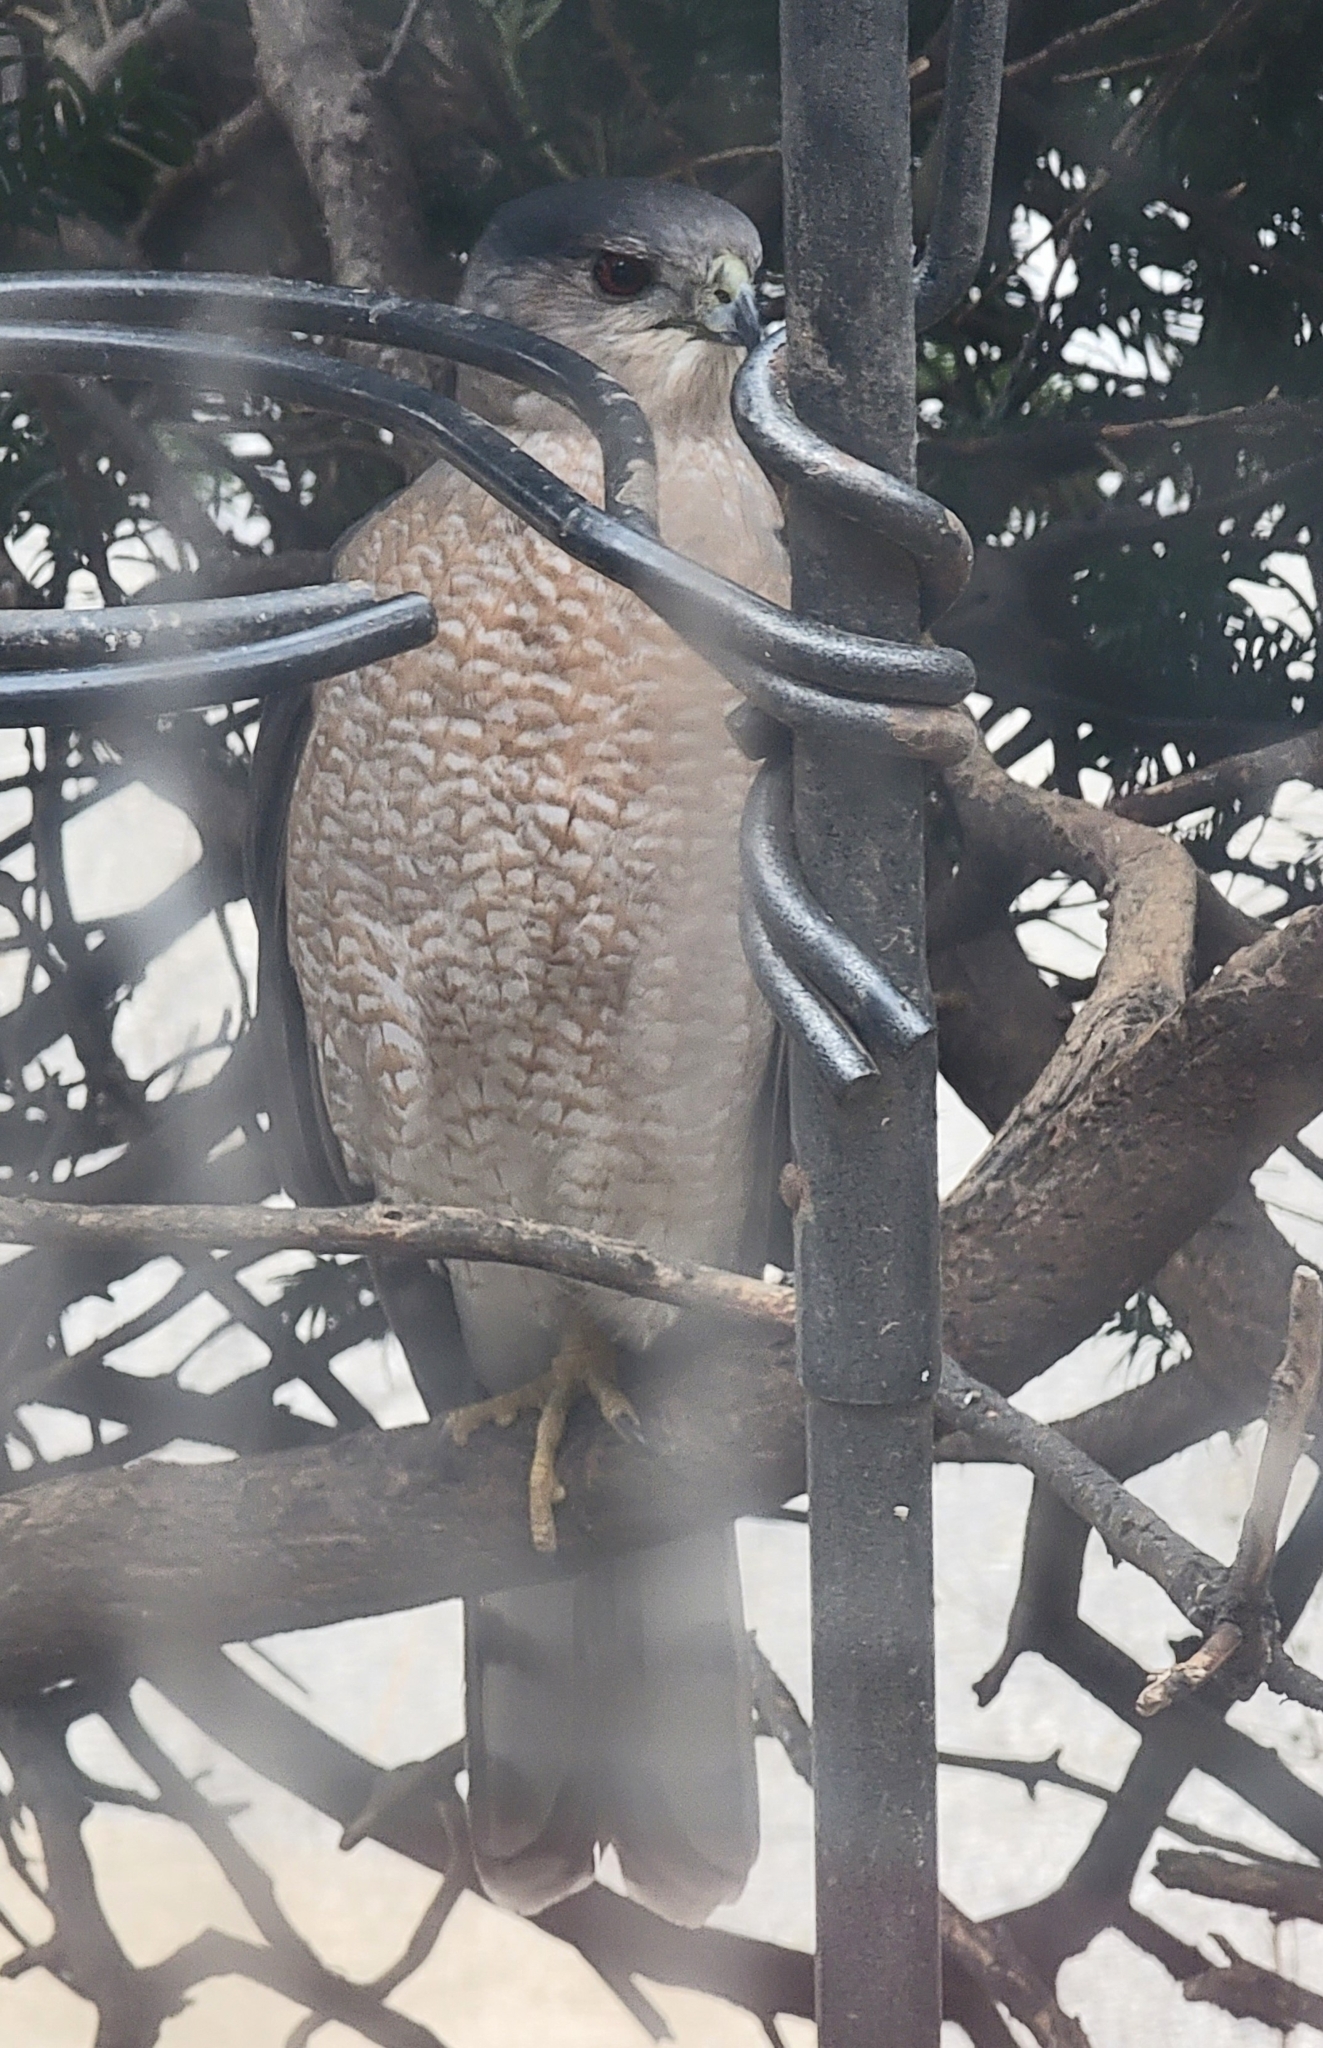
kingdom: Animalia
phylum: Chordata
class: Aves
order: Accipitriformes
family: Accipitridae
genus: Accipiter
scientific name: Accipiter cooperii
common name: Cooper's hawk
